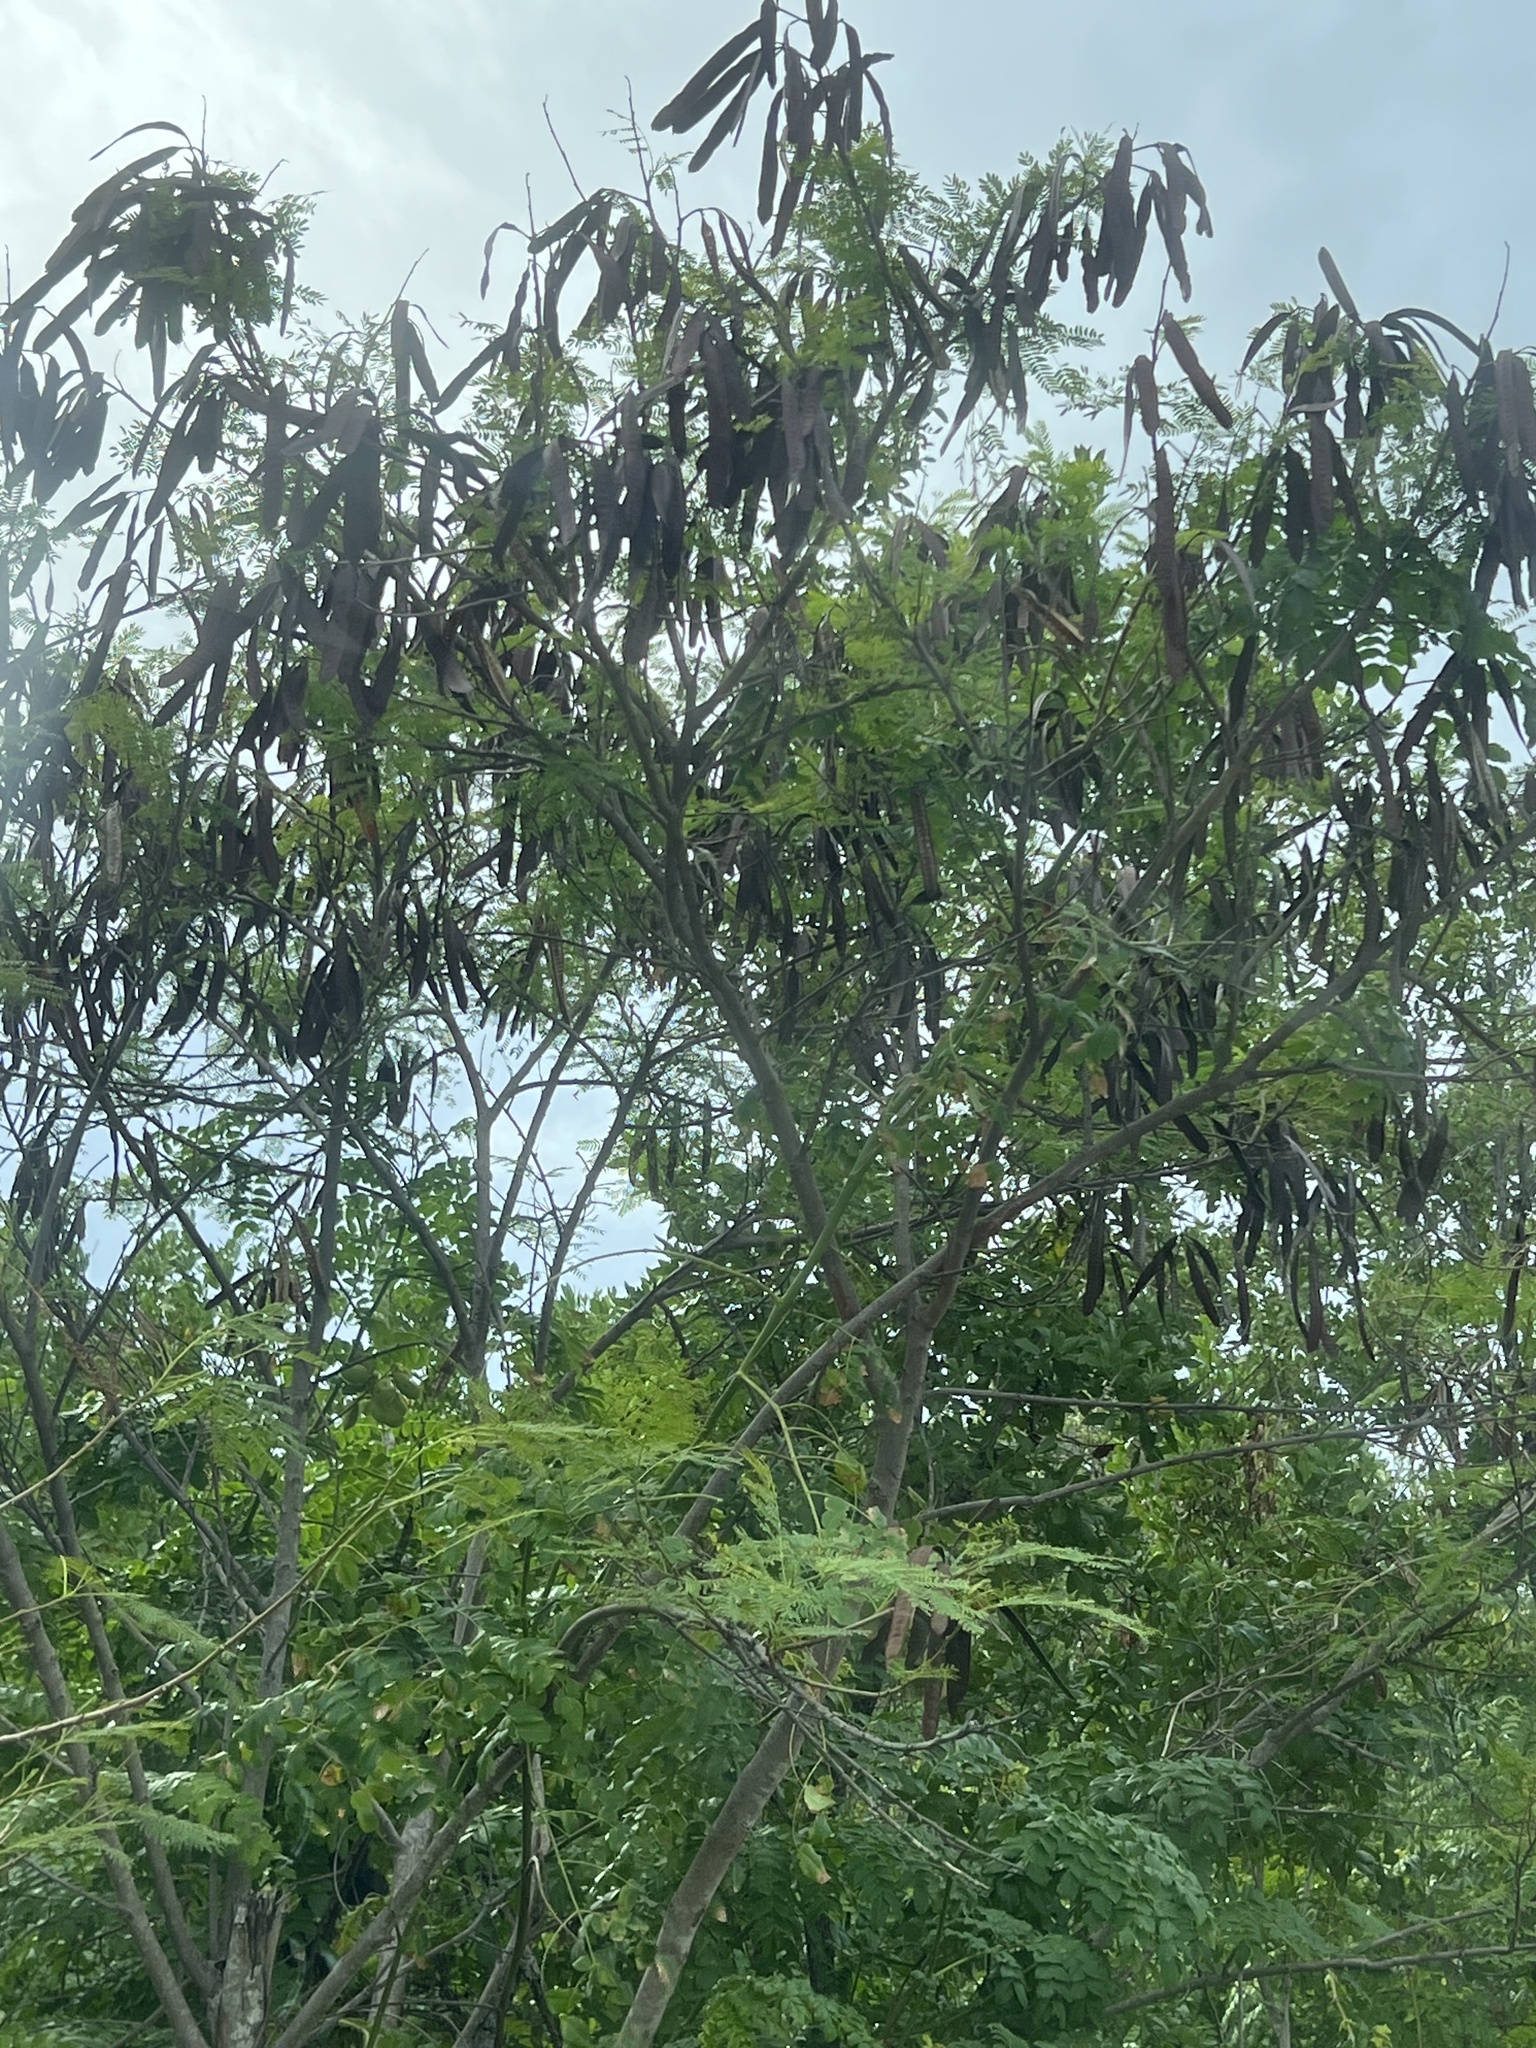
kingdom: Plantae
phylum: Tracheophyta
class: Magnoliopsida
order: Fabales
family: Fabaceae
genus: Leucaena
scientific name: Leucaena leucocephala
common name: White leadtree
